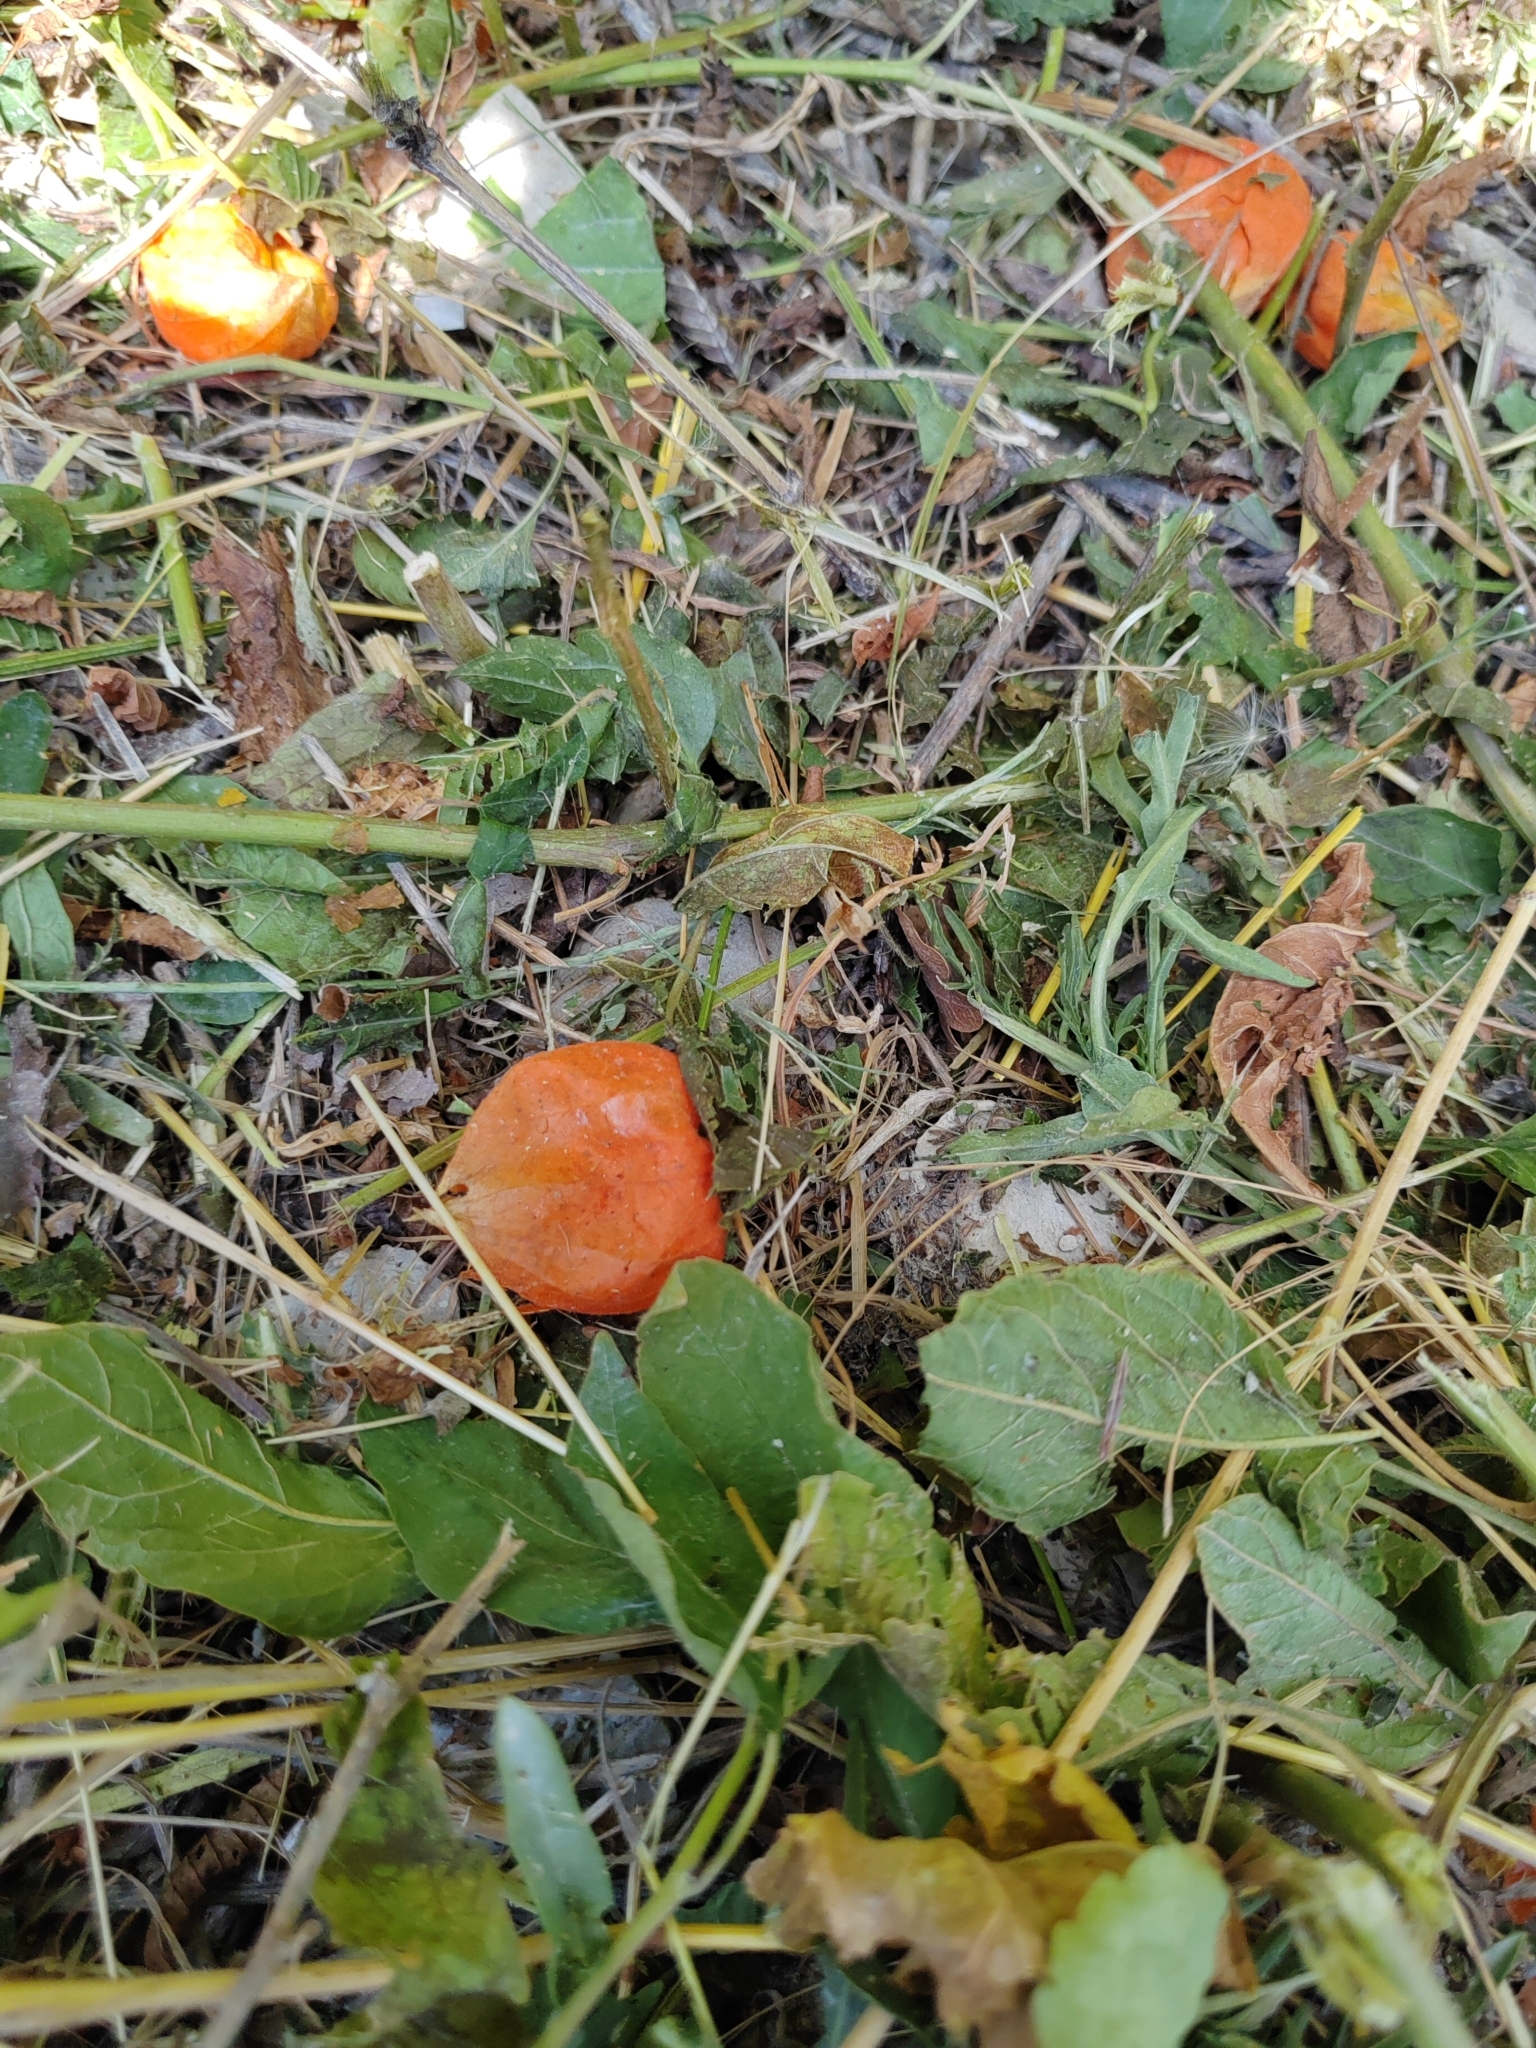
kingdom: Plantae
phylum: Tracheophyta
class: Magnoliopsida
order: Solanales
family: Solanaceae
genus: Alkekengi
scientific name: Alkekengi officinarum
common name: Japanese-lantern
